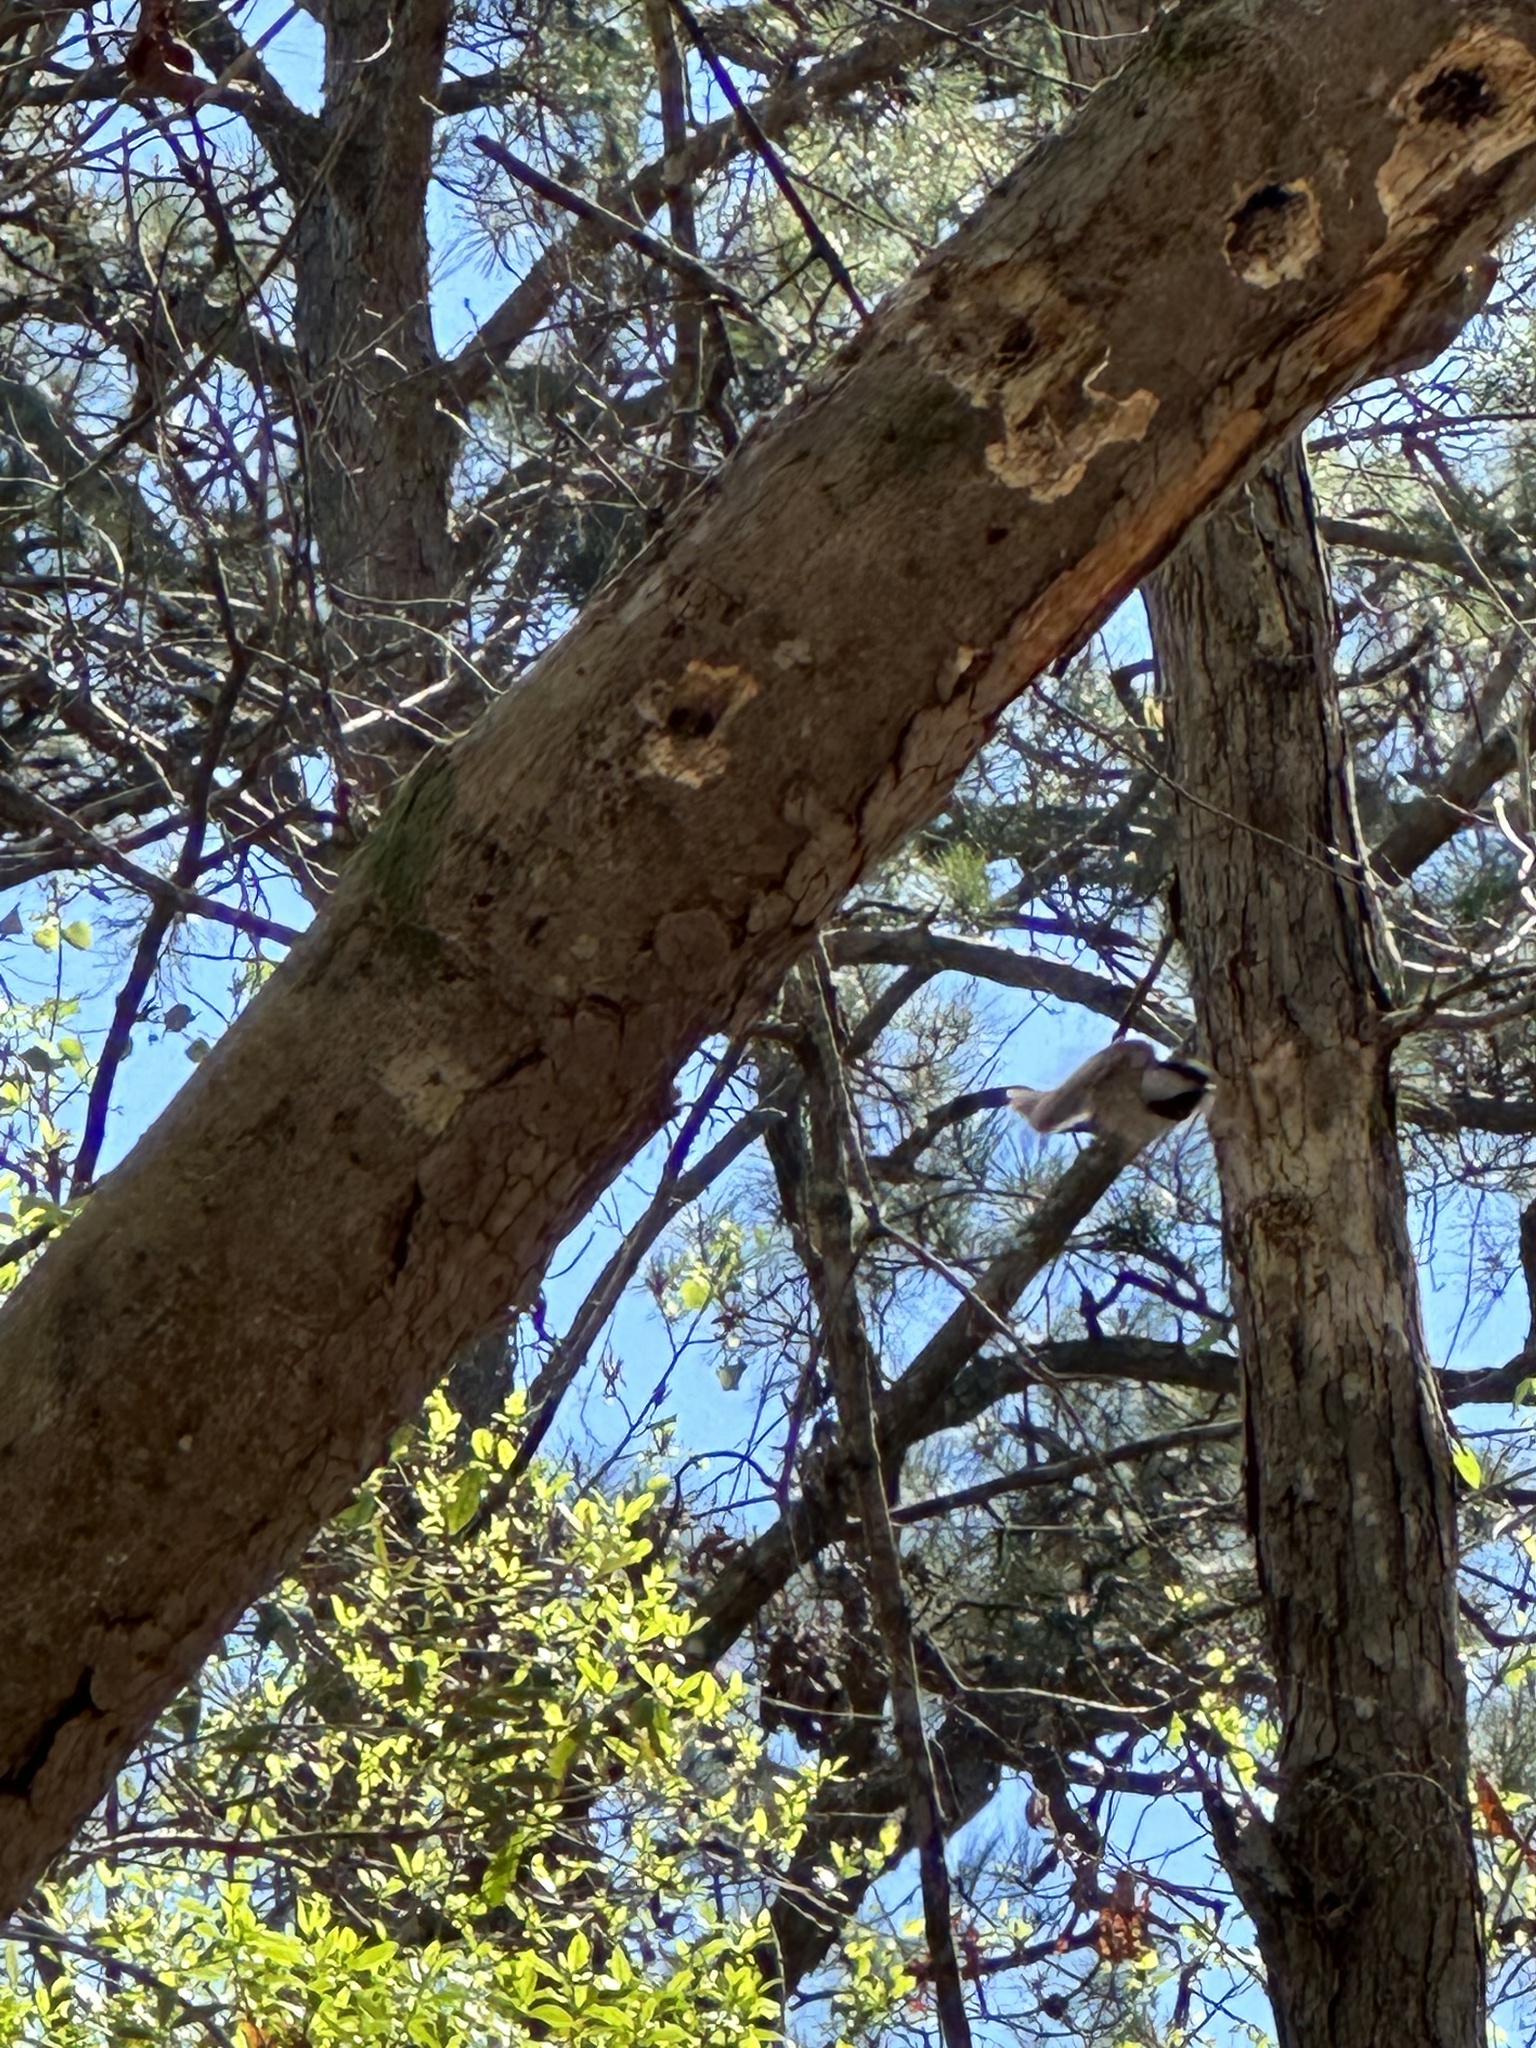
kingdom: Animalia
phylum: Chordata
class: Aves
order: Passeriformes
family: Paridae
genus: Poecile
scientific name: Poecile carolinensis
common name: Carolina chickadee
